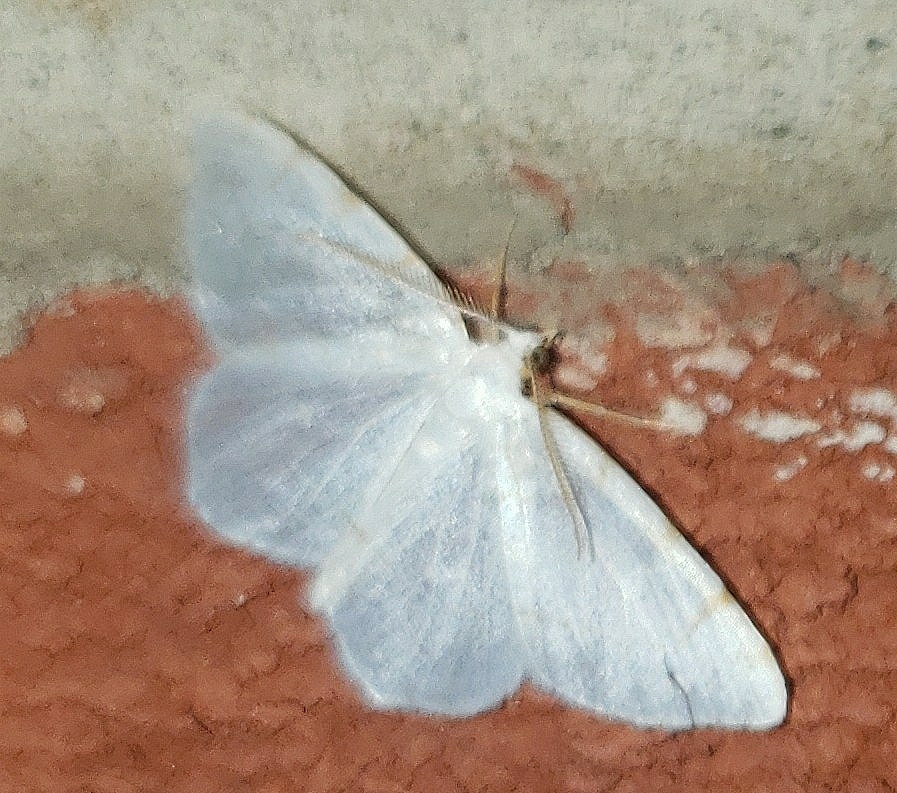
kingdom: Animalia
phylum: Arthropoda
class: Insecta
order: Lepidoptera
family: Geometridae
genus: Macaria
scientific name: Macaria pustularia
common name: Lesser maple spanworm moth
